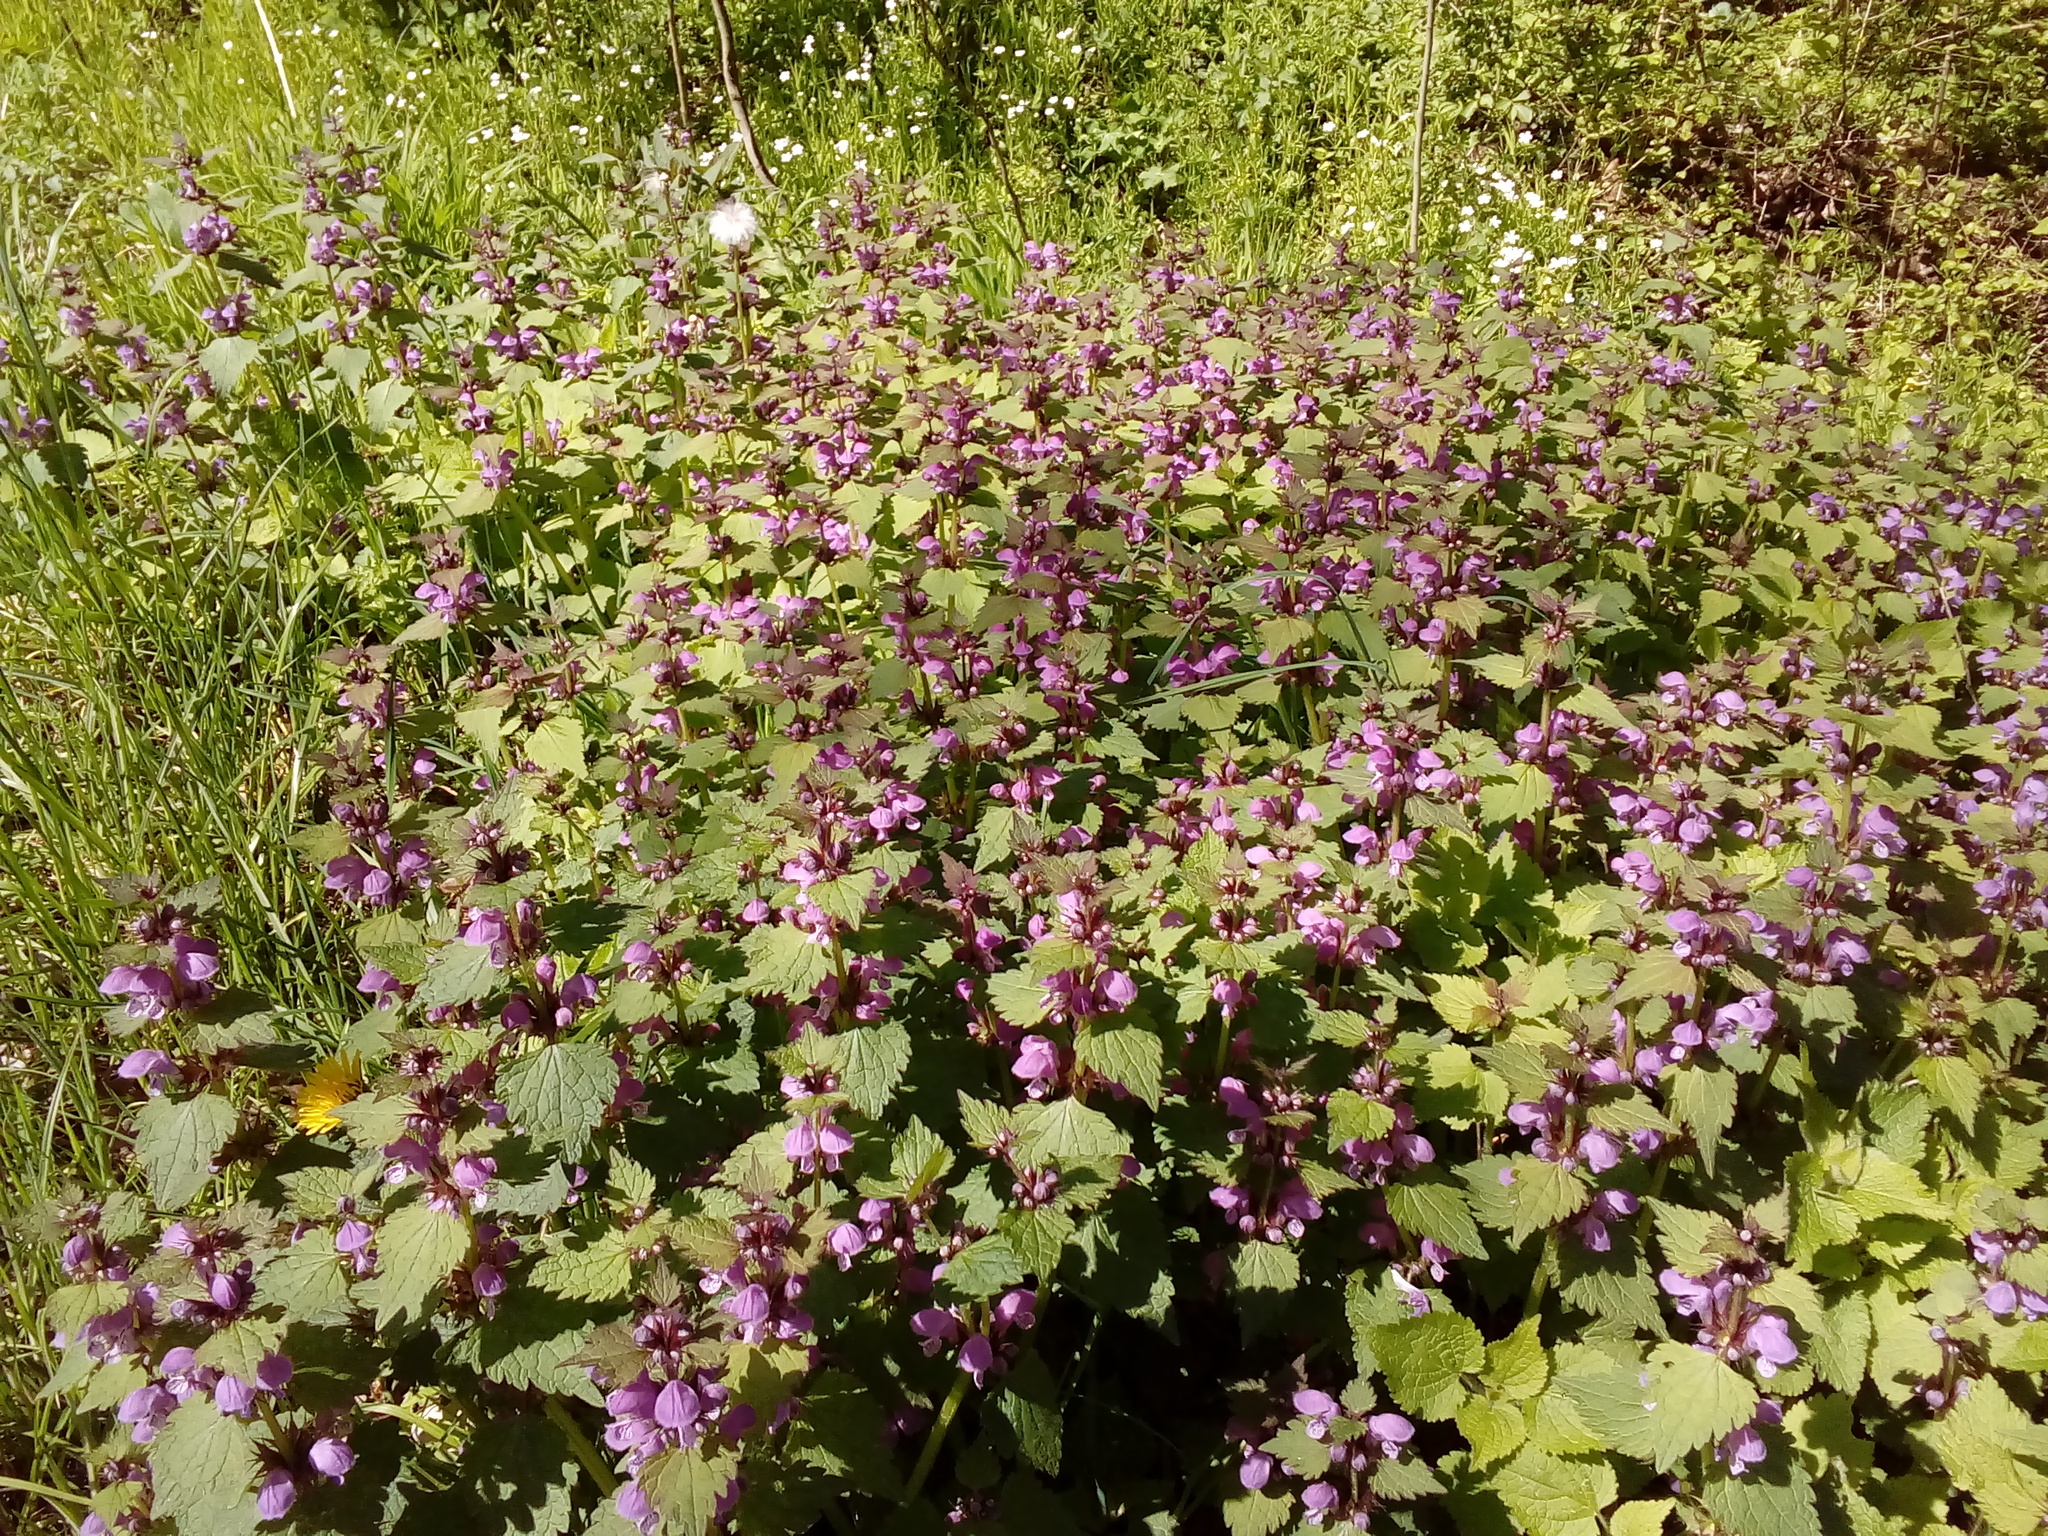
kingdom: Plantae
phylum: Tracheophyta
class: Magnoliopsida
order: Lamiales
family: Lamiaceae
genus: Lamium
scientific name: Lamium maculatum
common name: Spotted dead-nettle
